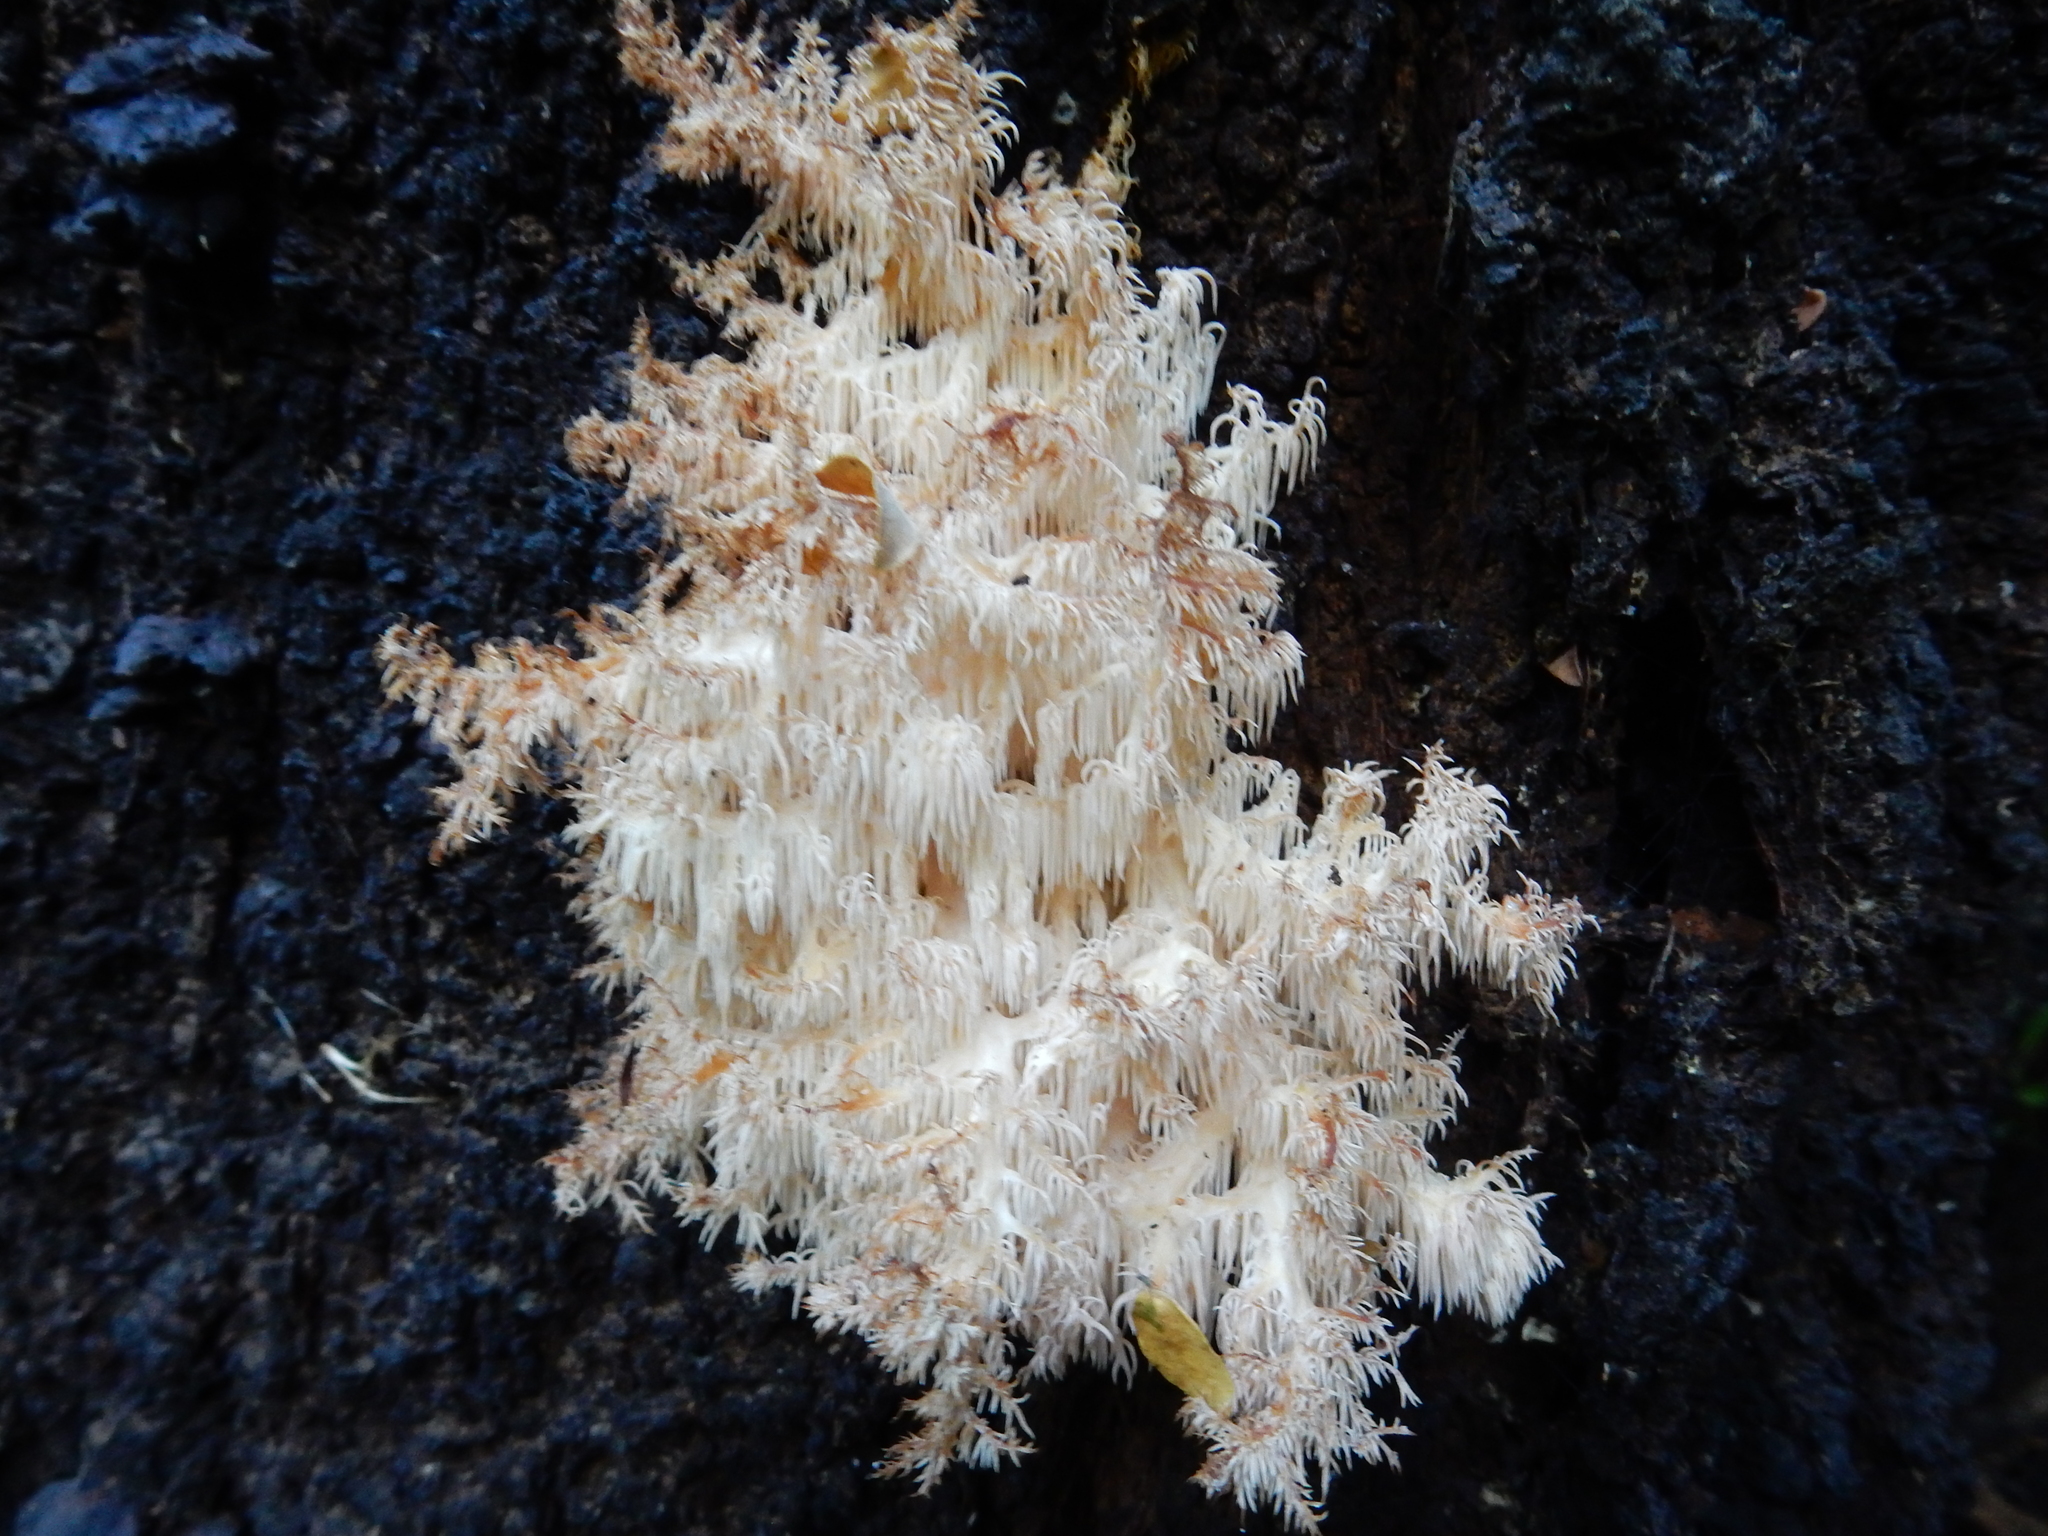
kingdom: Fungi
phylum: Basidiomycota
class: Agaricomycetes
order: Russulales
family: Hericiaceae
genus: Hericium
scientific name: Hericium novae-zealandiae
